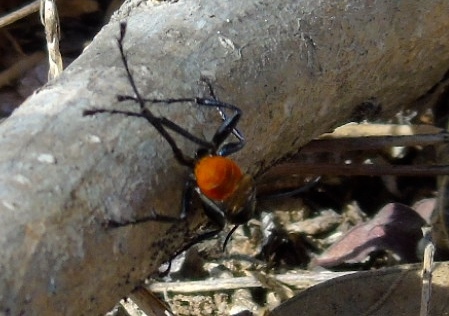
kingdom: Animalia
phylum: Arthropoda
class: Insecta
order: Hymenoptera
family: Sphecidae
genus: Prionyx
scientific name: Prionyx
